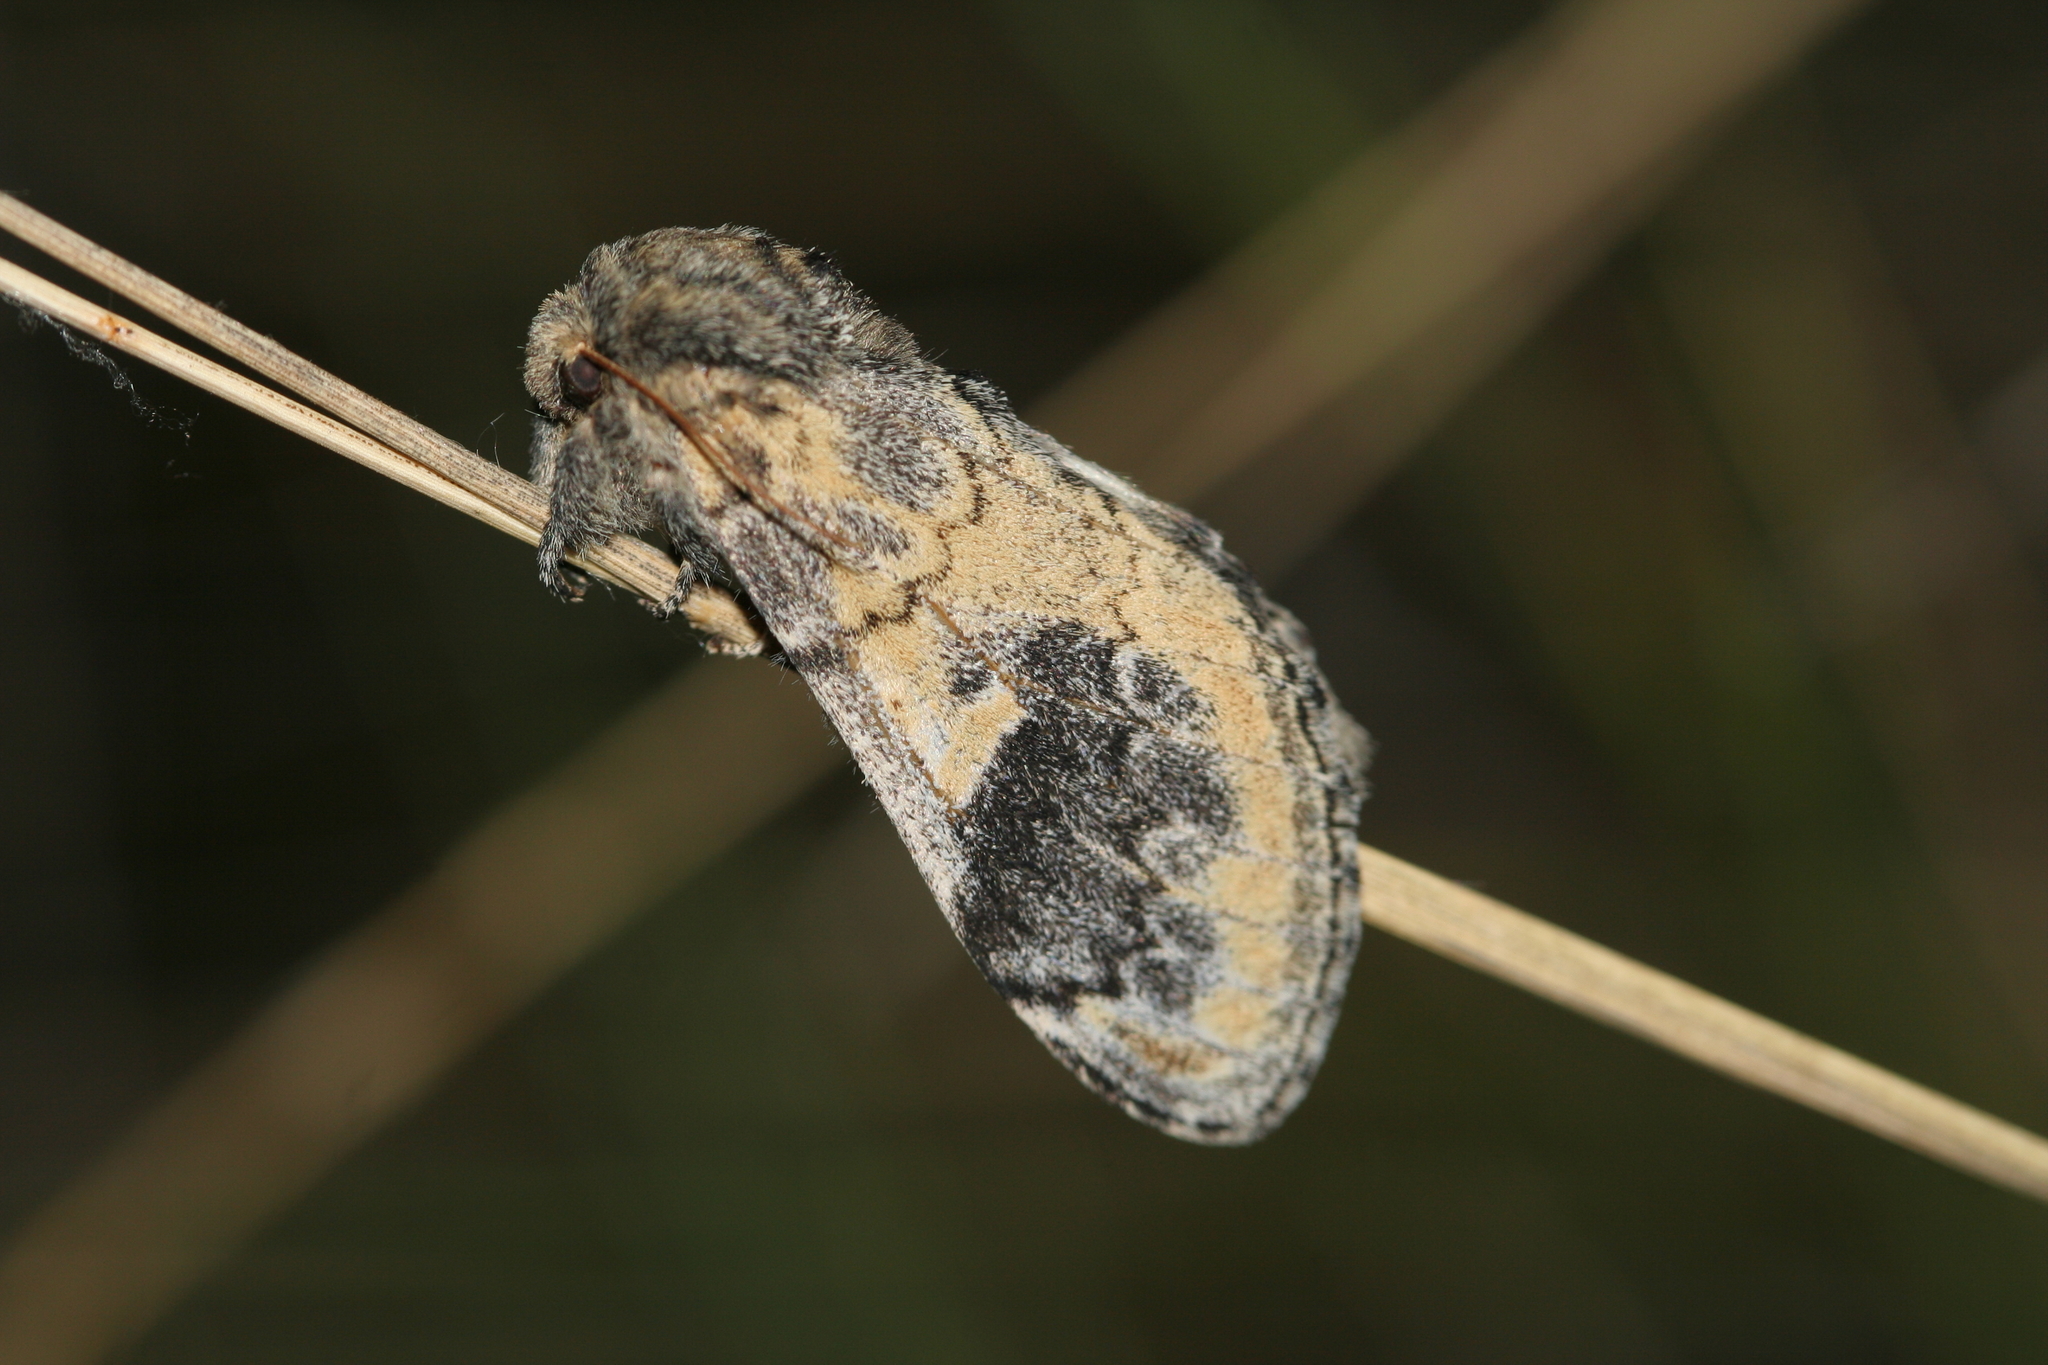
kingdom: Animalia
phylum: Arthropoda
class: Insecta
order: Lepidoptera
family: Notodontidae
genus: Notodonta
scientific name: Notodonta tritophus
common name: Three-humped prominent
